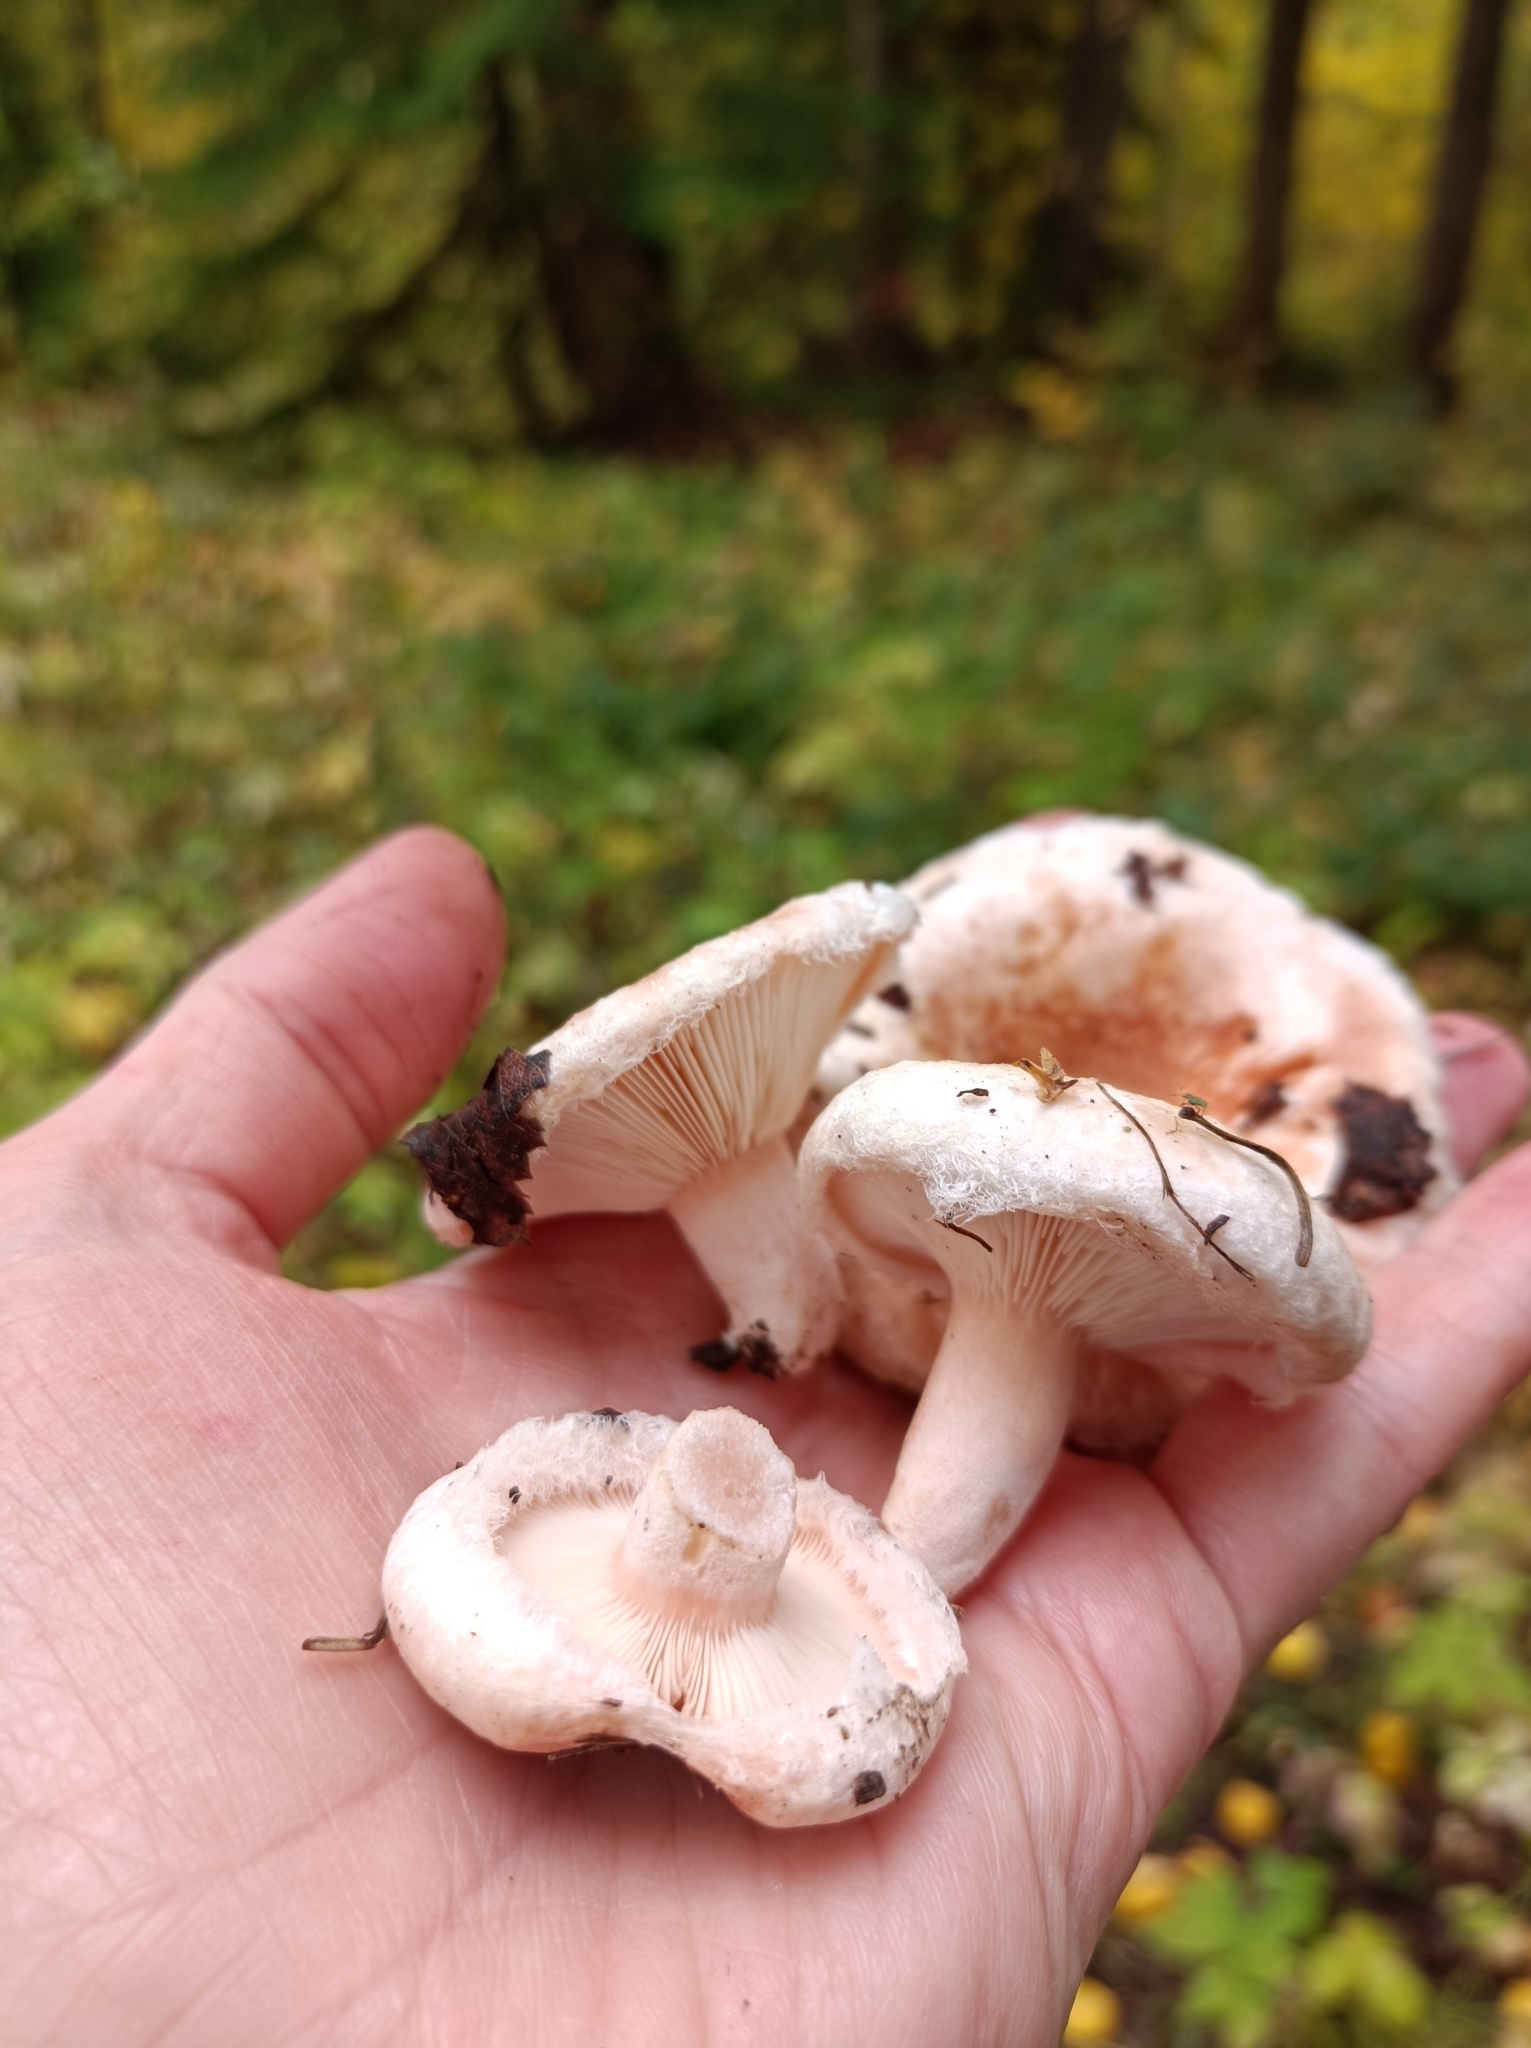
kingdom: Fungi
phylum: Basidiomycota
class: Agaricomycetes
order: Russulales
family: Russulaceae
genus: Lactarius
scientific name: Lactarius pubescens
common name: Bearded milkcap
